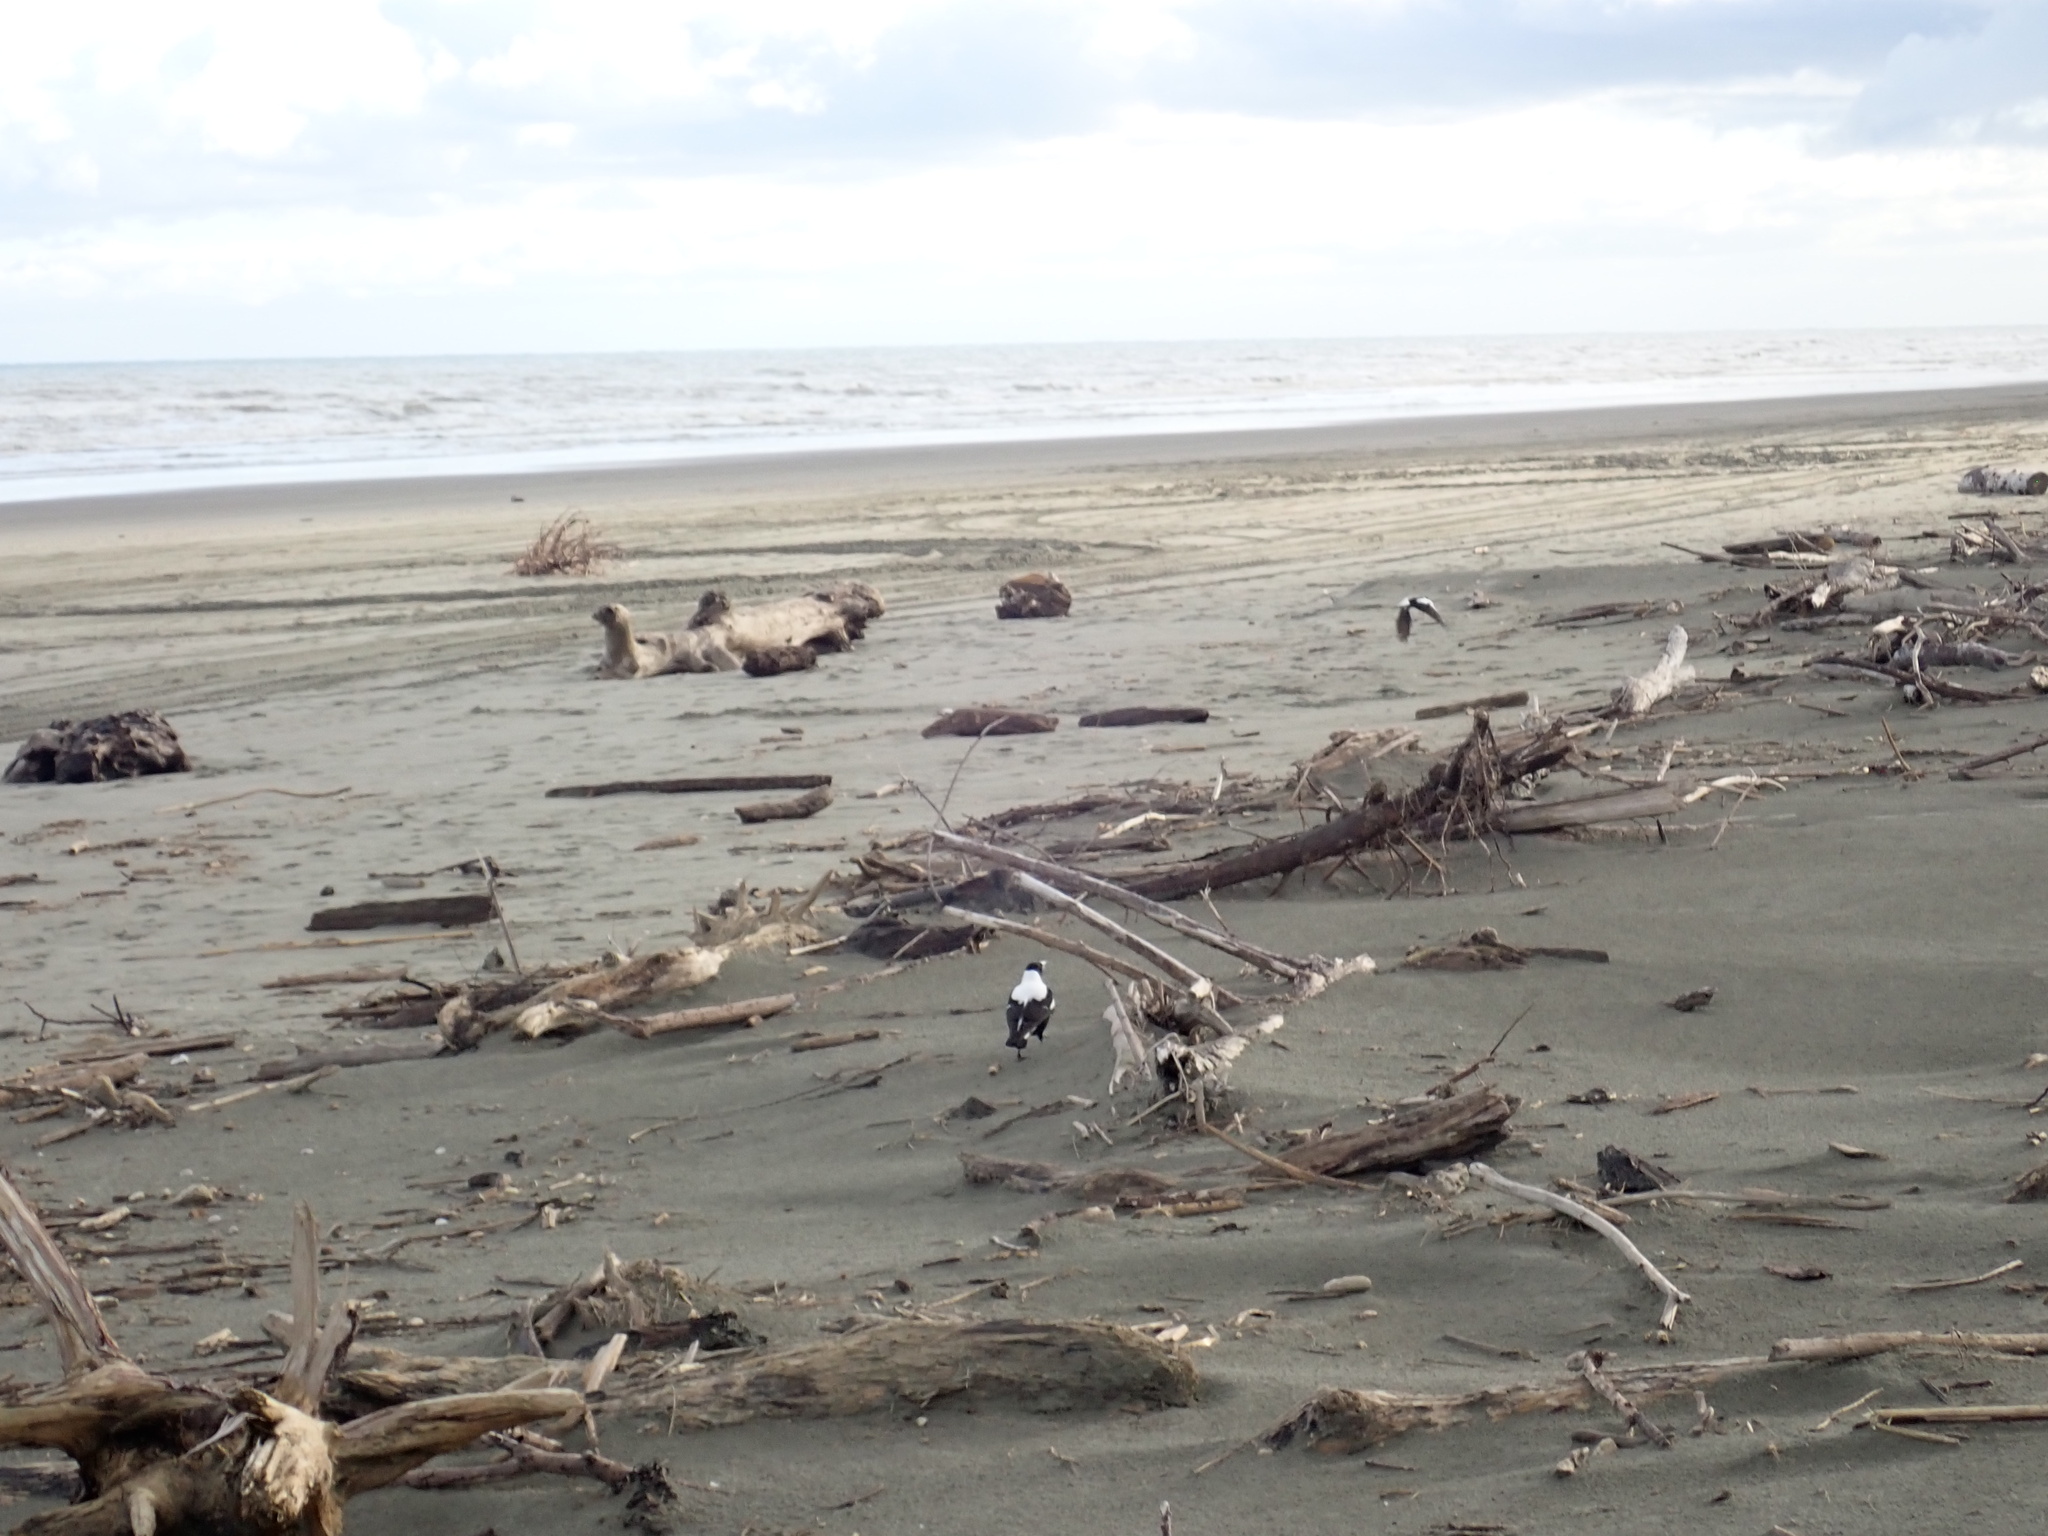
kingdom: Animalia
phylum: Chordata
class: Aves
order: Passeriformes
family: Cracticidae
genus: Gymnorhina
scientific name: Gymnorhina tibicen
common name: Australian magpie
